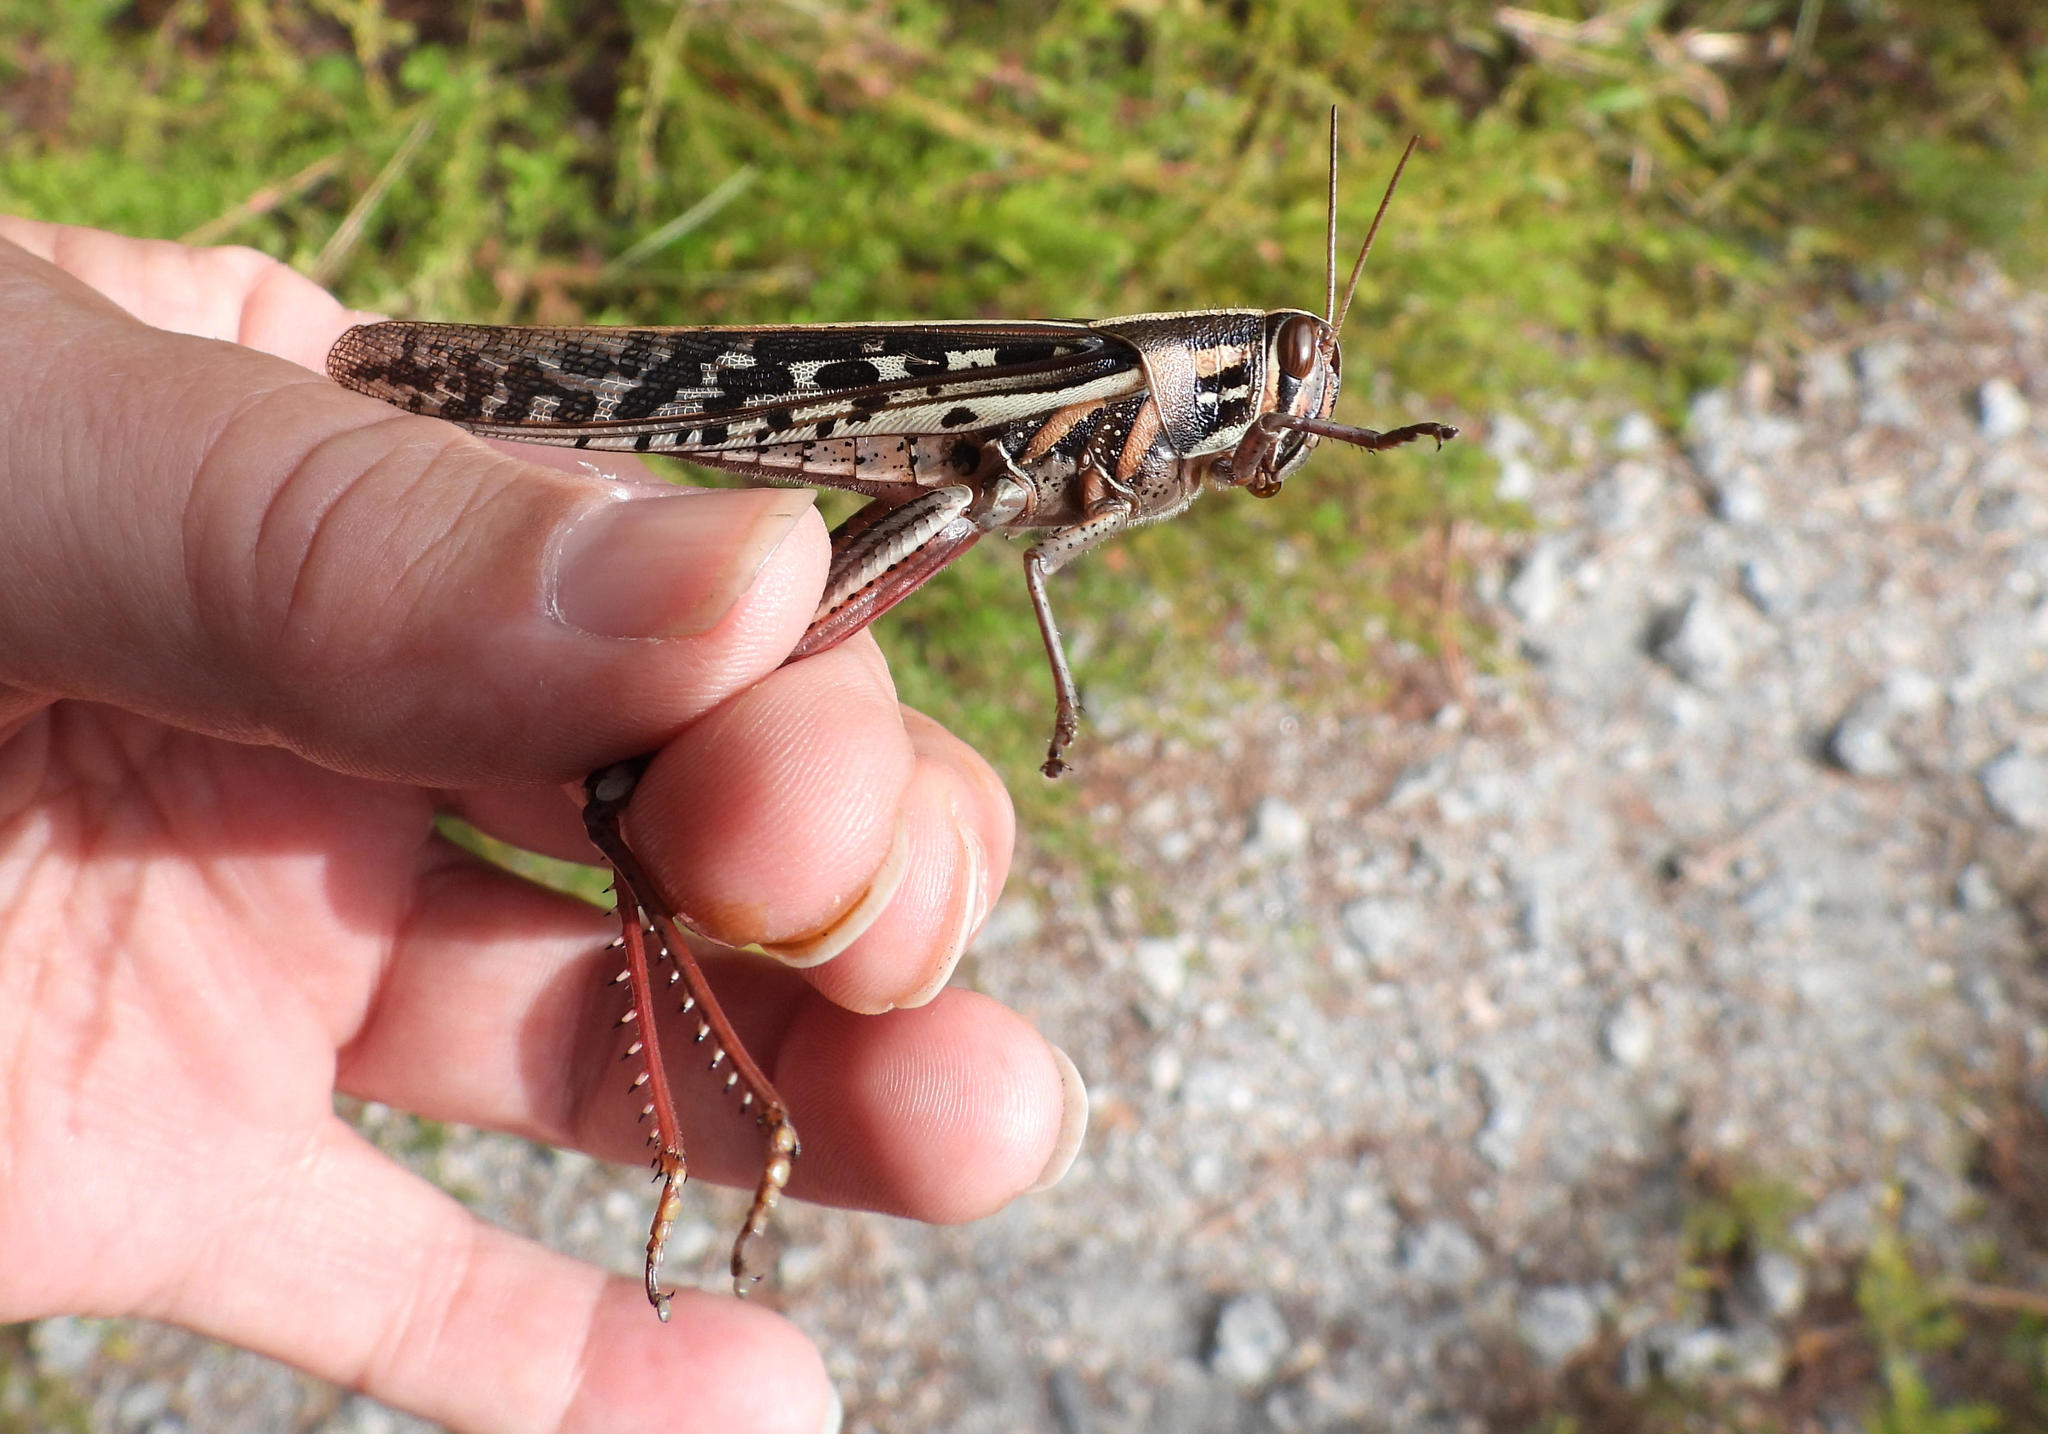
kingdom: Animalia
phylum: Arthropoda
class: Insecta
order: Orthoptera
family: Acrididae
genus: Schistocerca
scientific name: Schistocerca americana
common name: American bird locust
